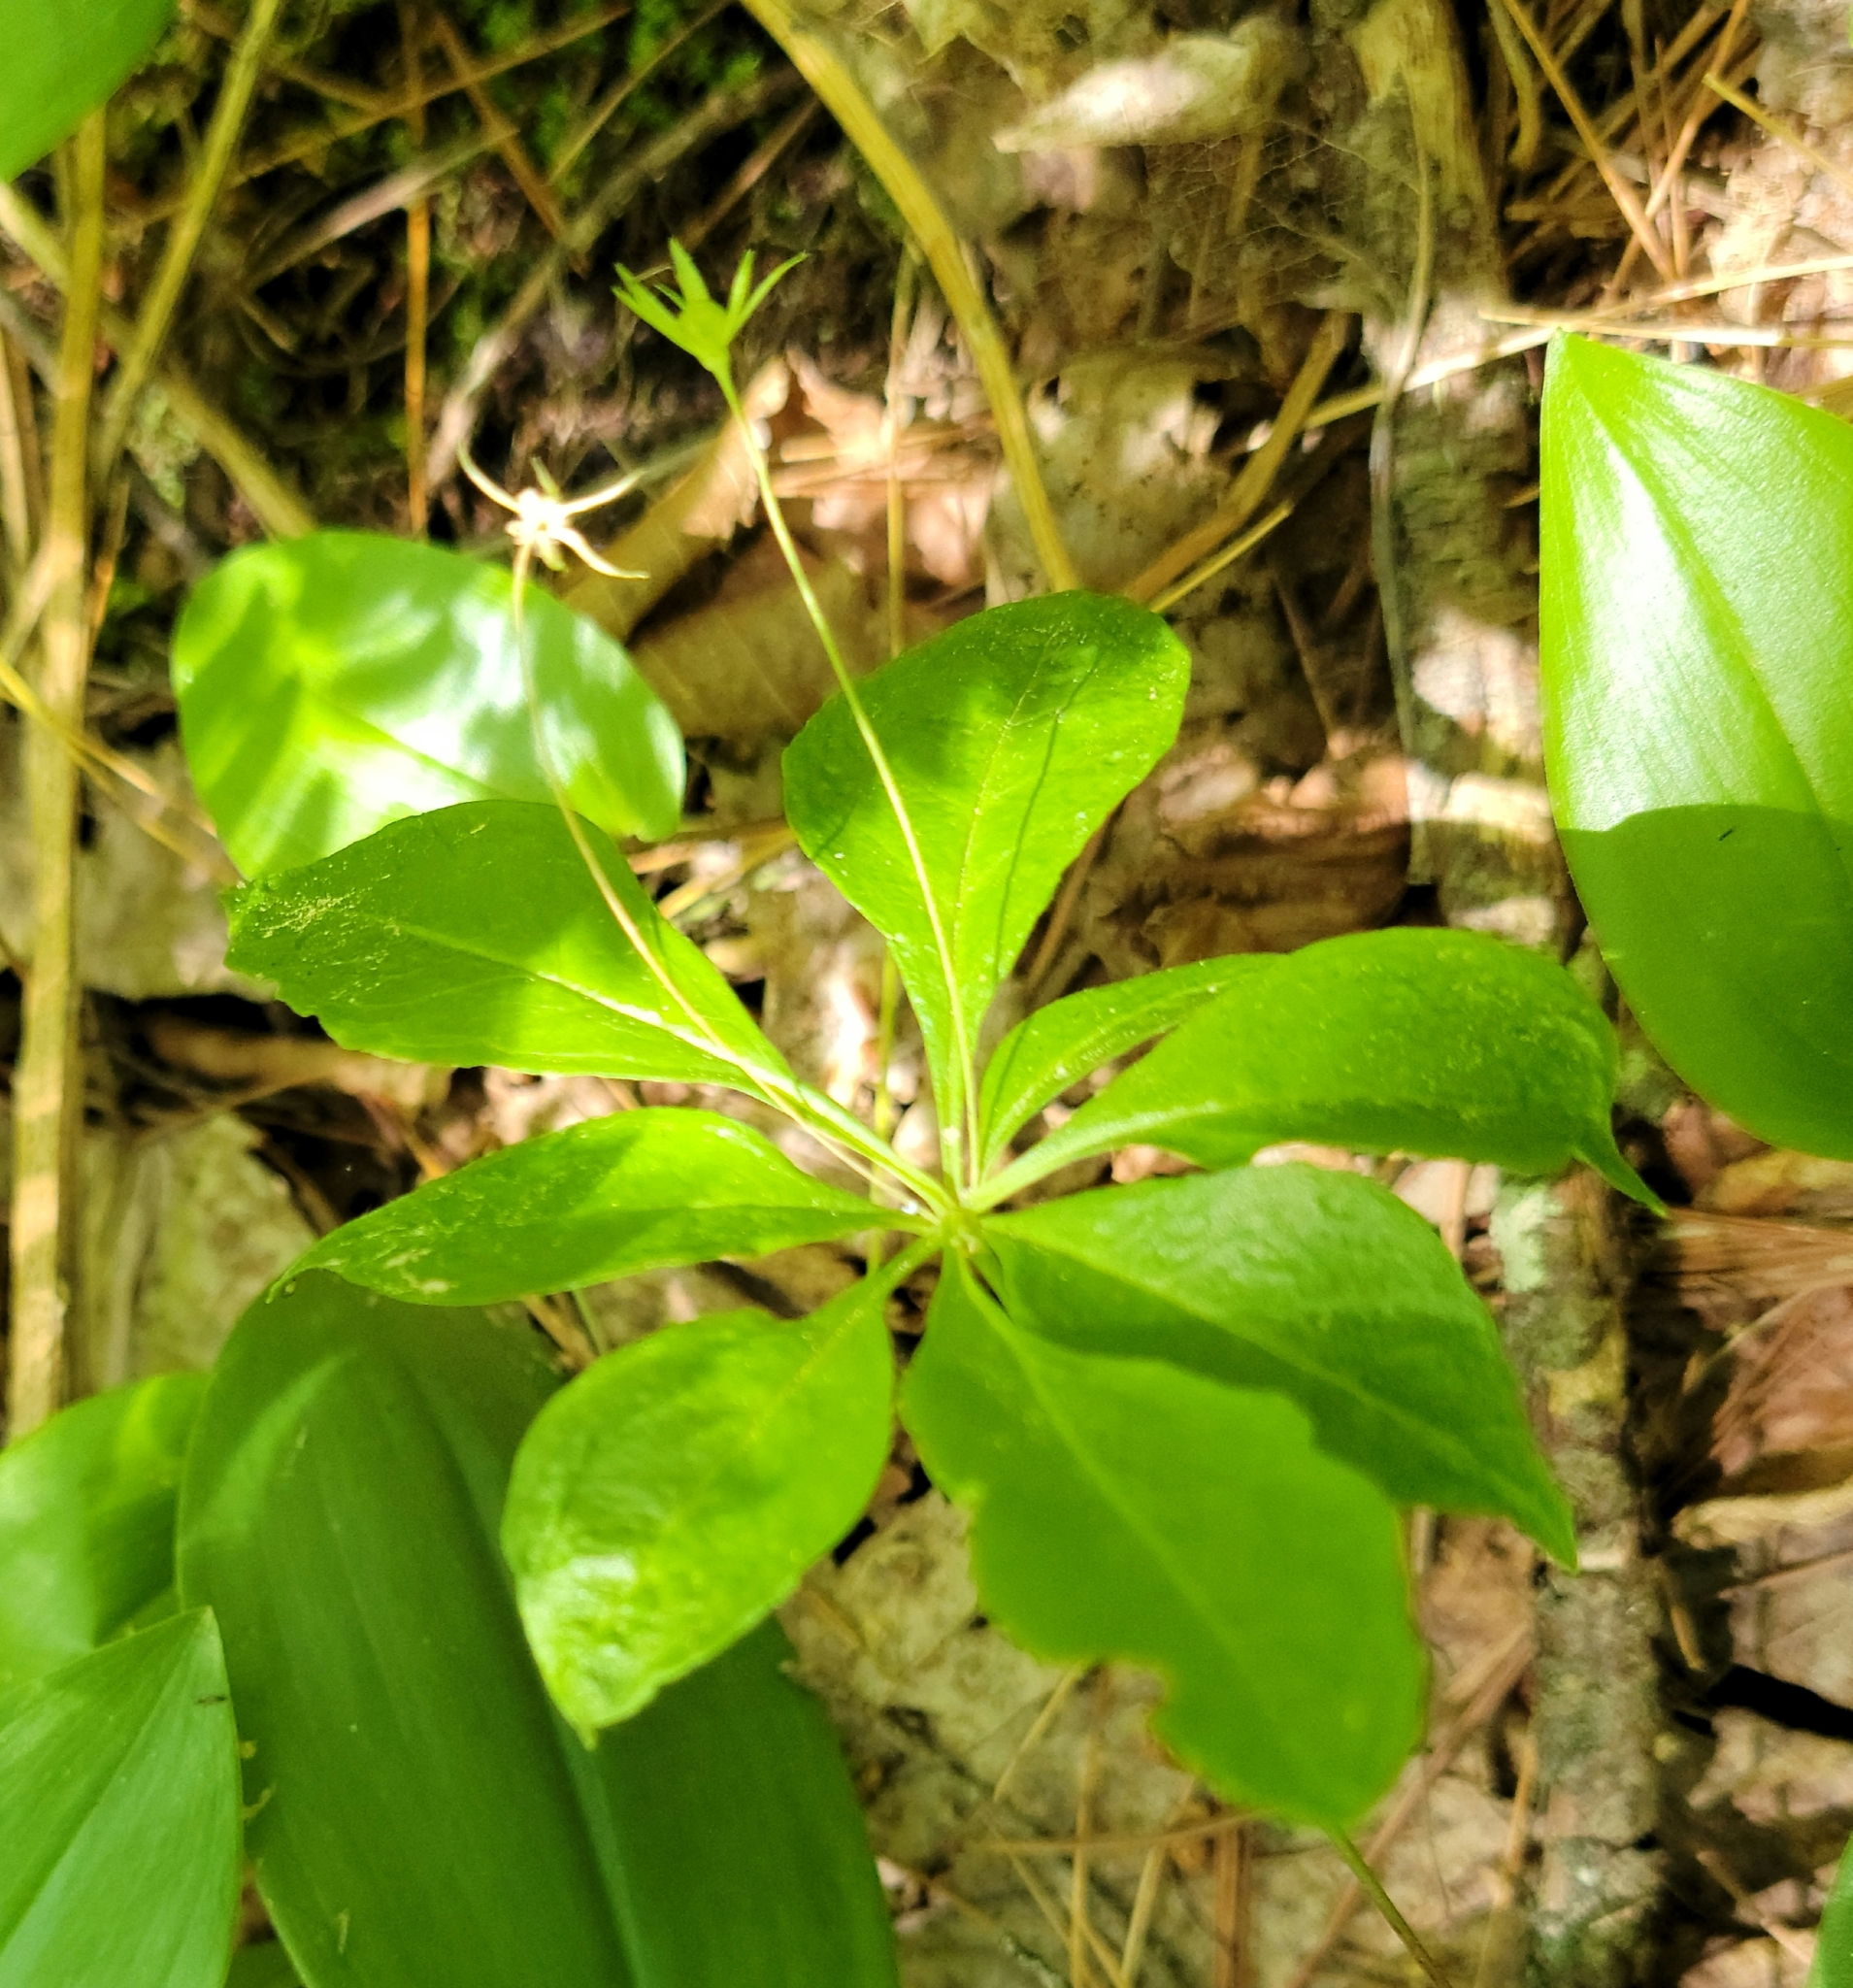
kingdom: Plantae
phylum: Tracheophyta
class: Magnoliopsida
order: Ericales
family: Primulaceae
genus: Lysimachia
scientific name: Lysimachia borealis
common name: American starflower
